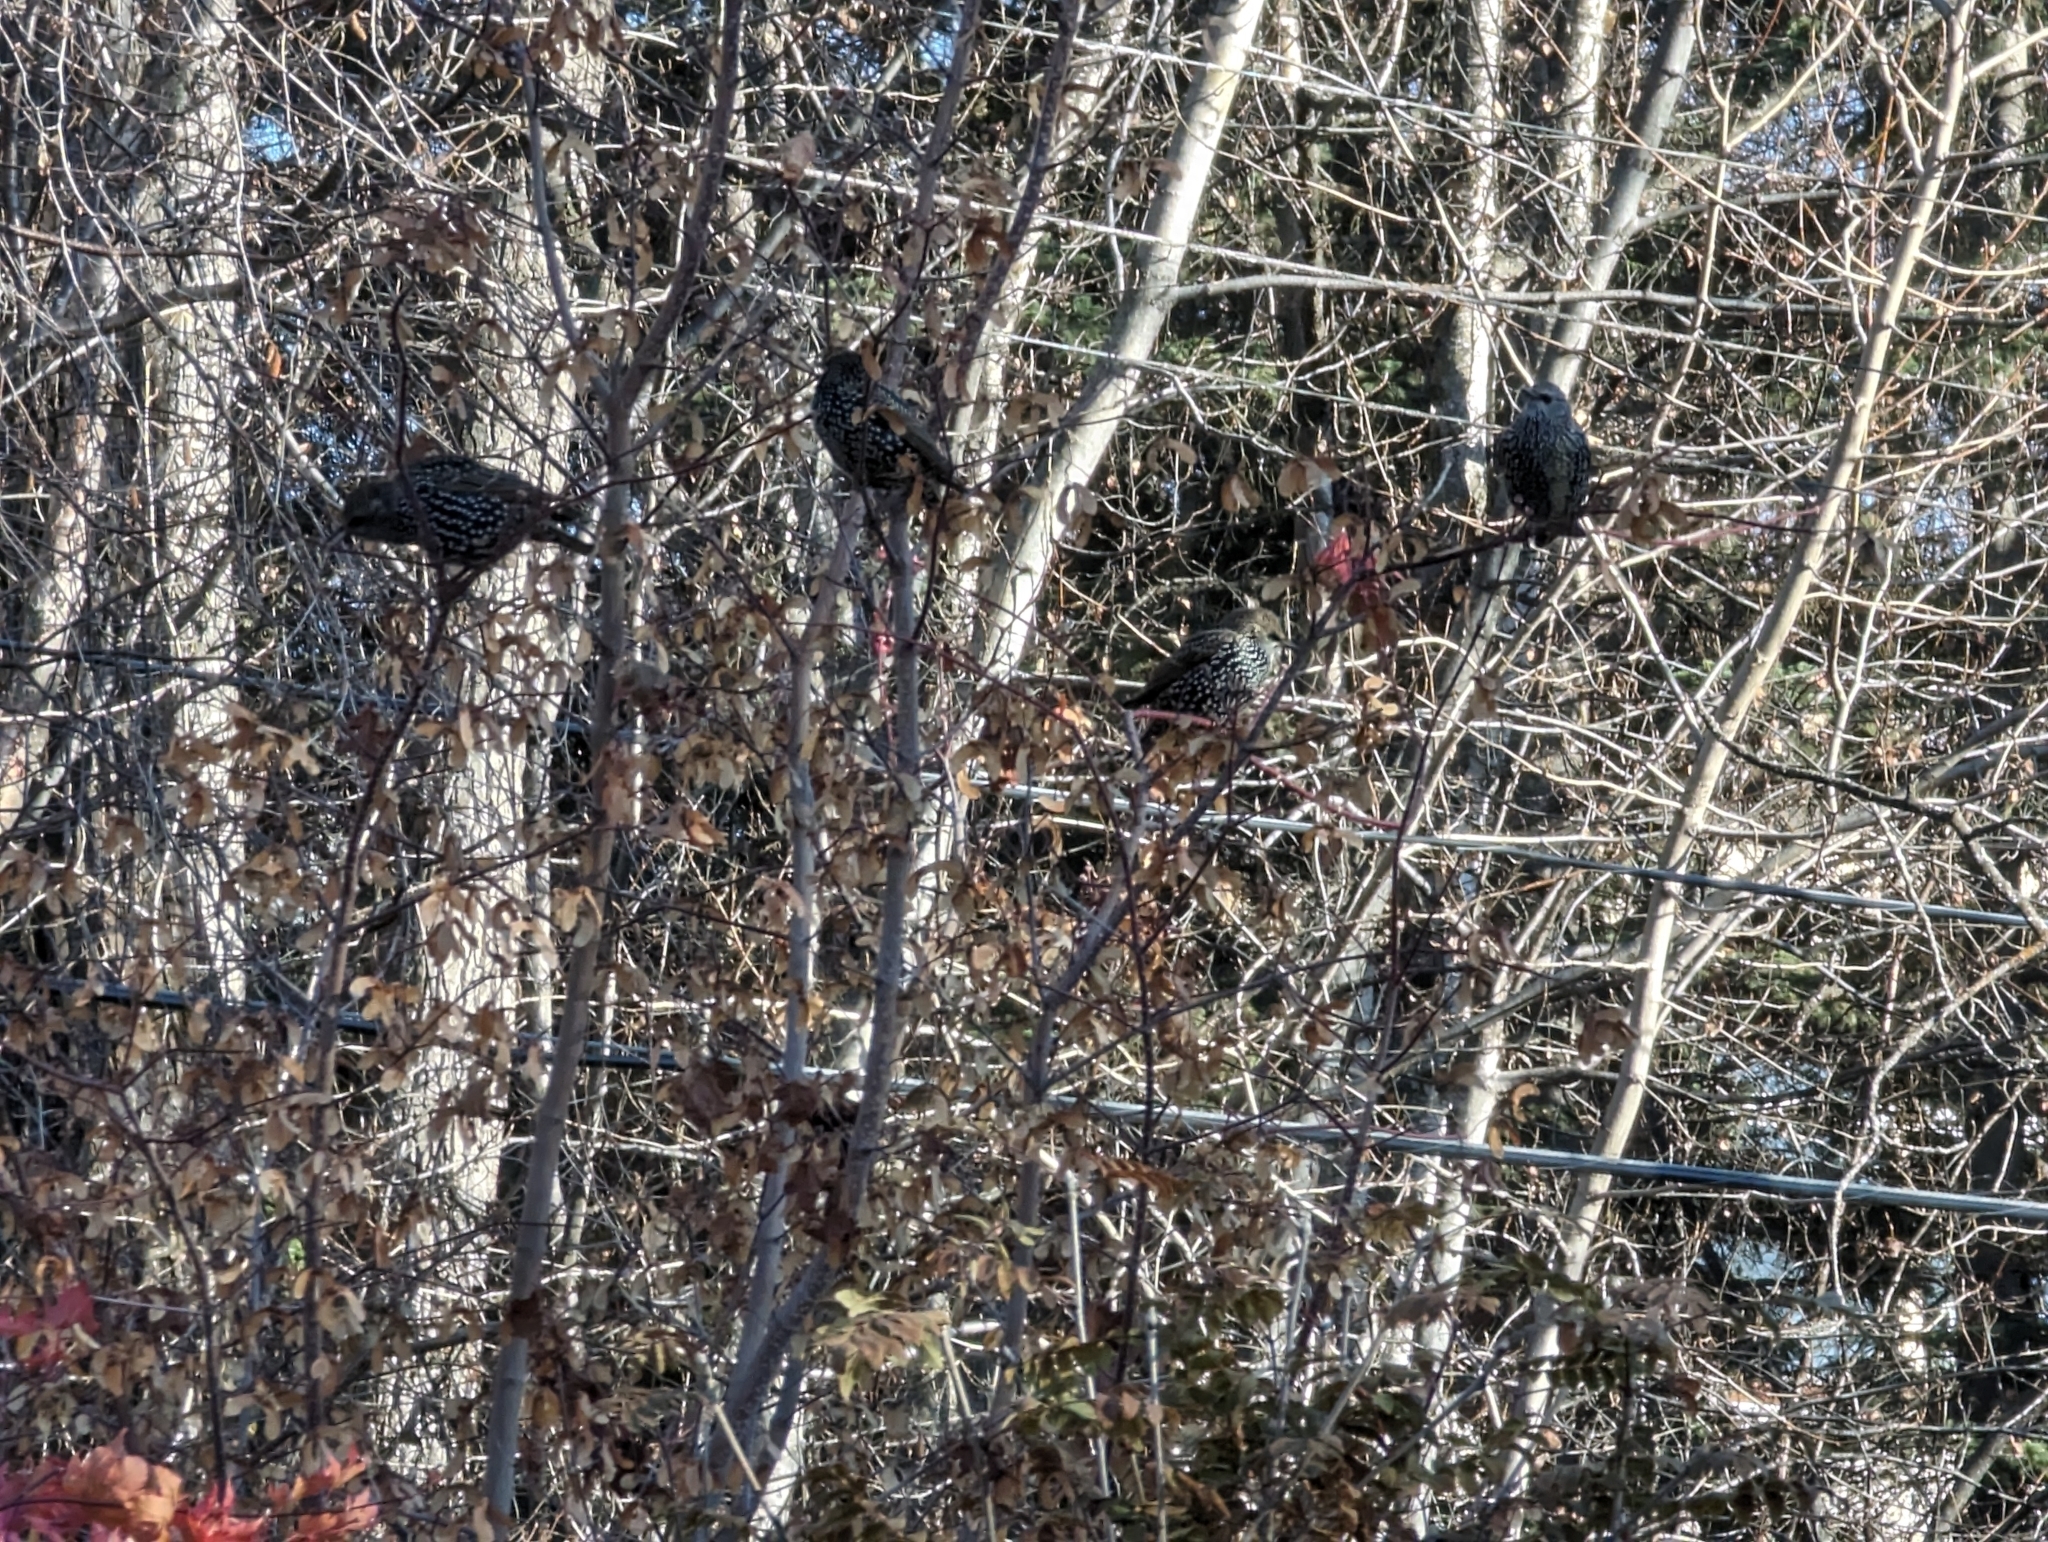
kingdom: Animalia
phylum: Chordata
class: Aves
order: Passeriformes
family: Sturnidae
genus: Sturnus
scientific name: Sturnus vulgaris
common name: Common starling
